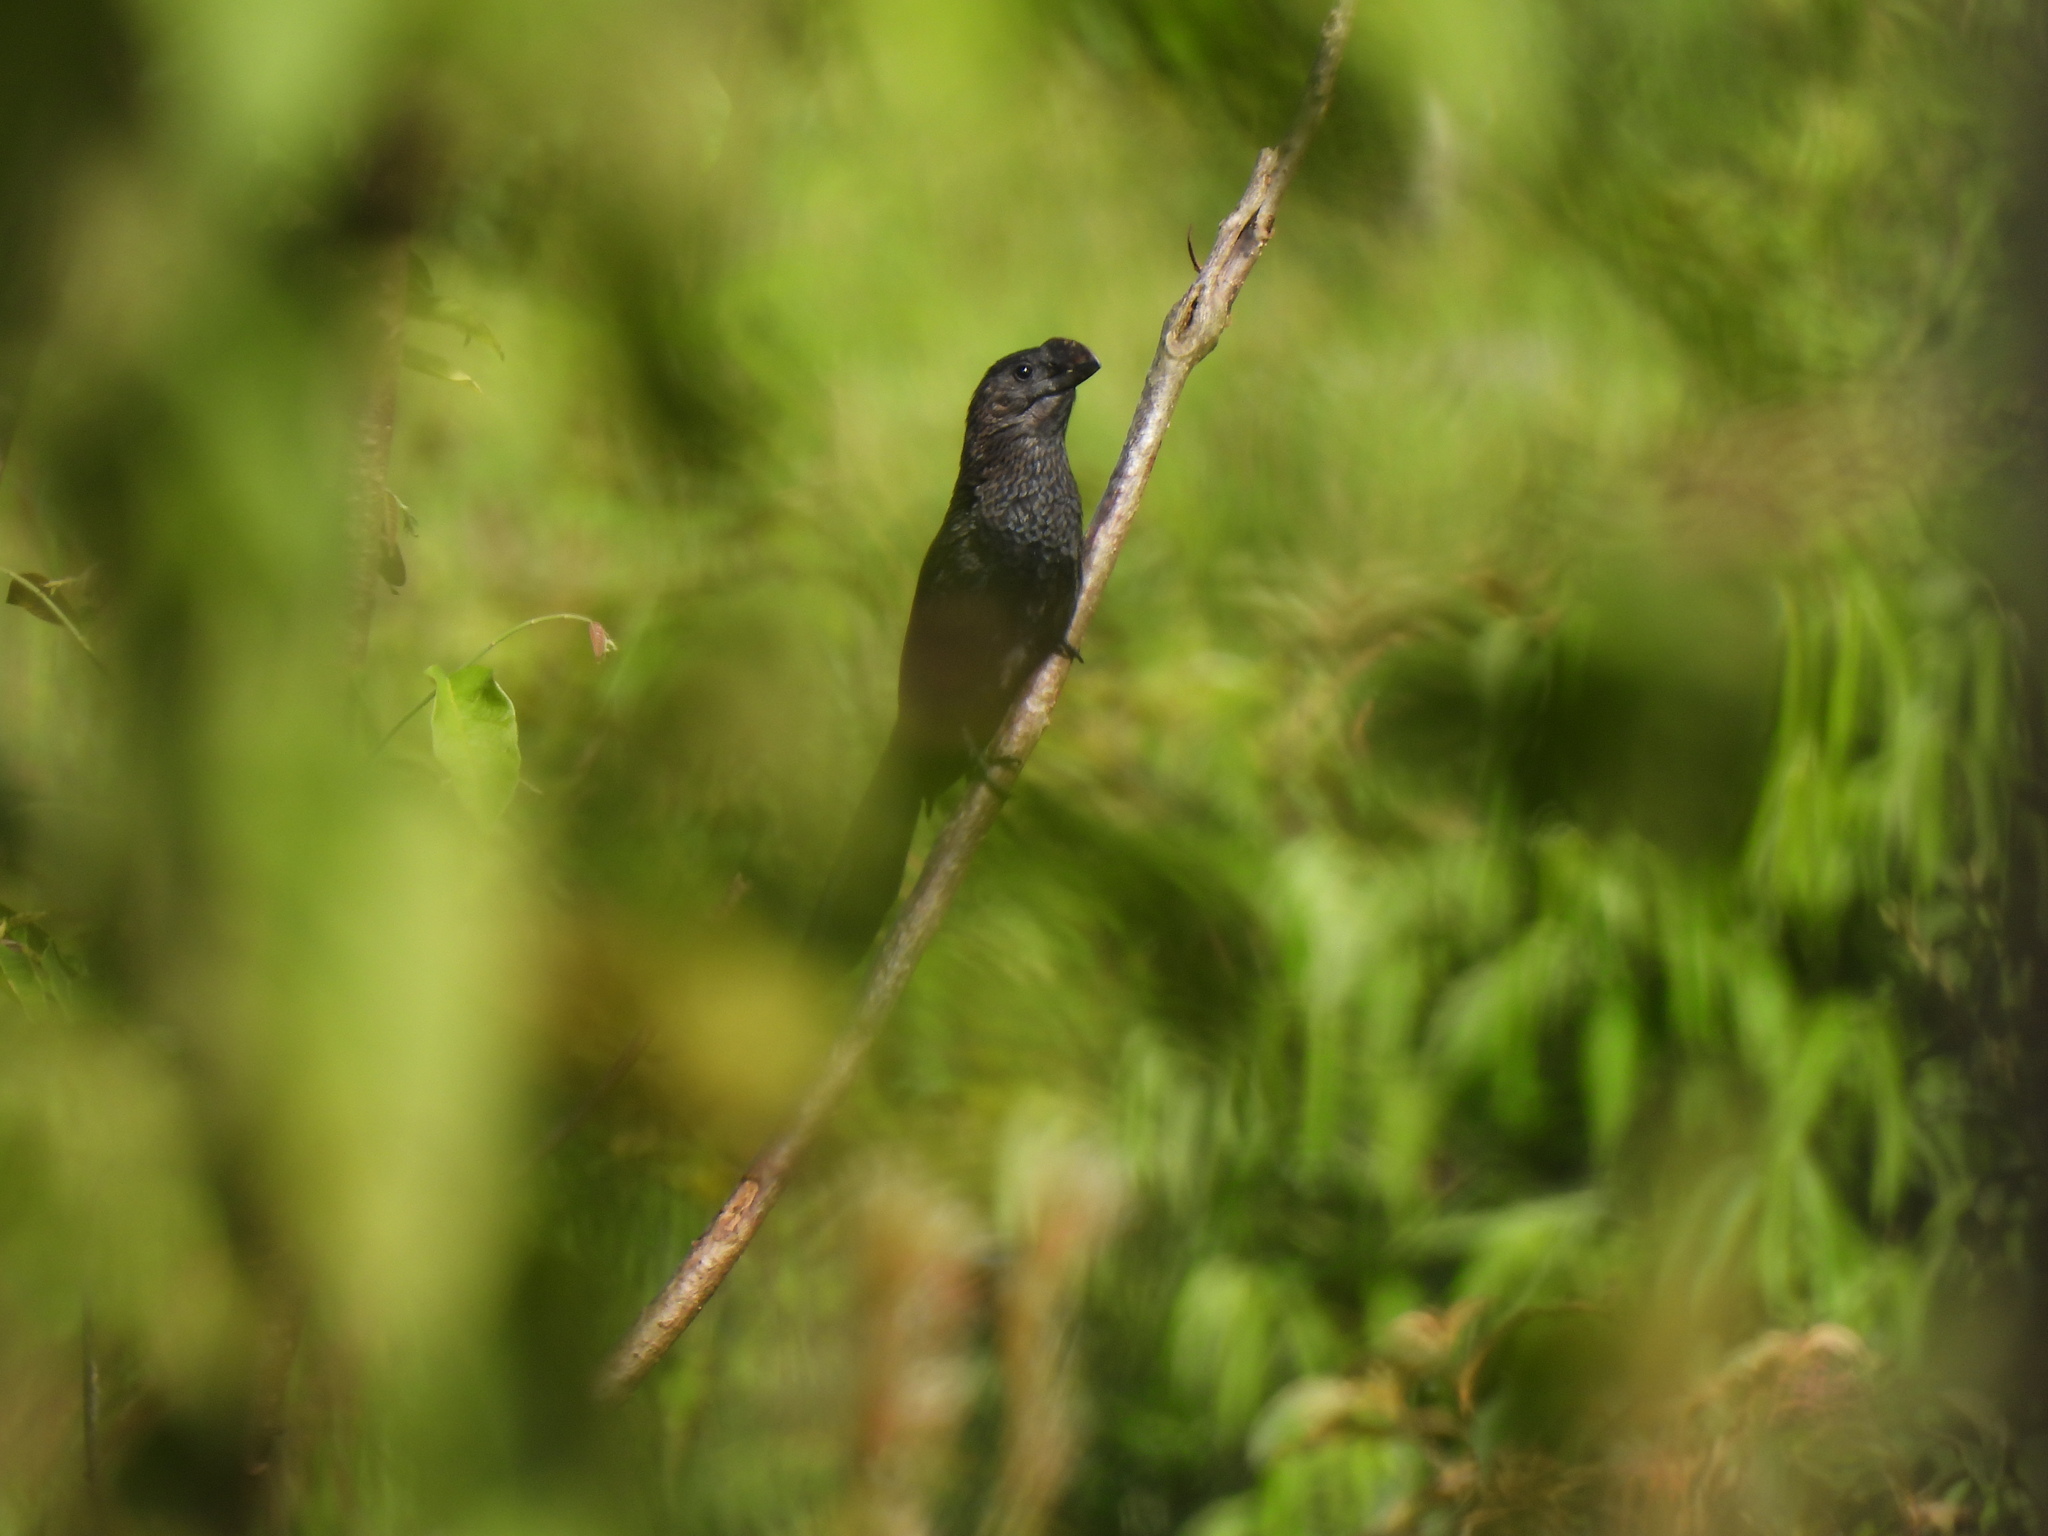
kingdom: Animalia
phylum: Chordata
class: Aves
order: Cuculiformes
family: Cuculidae
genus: Crotophaga
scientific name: Crotophaga ani
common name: Smooth-billed ani
